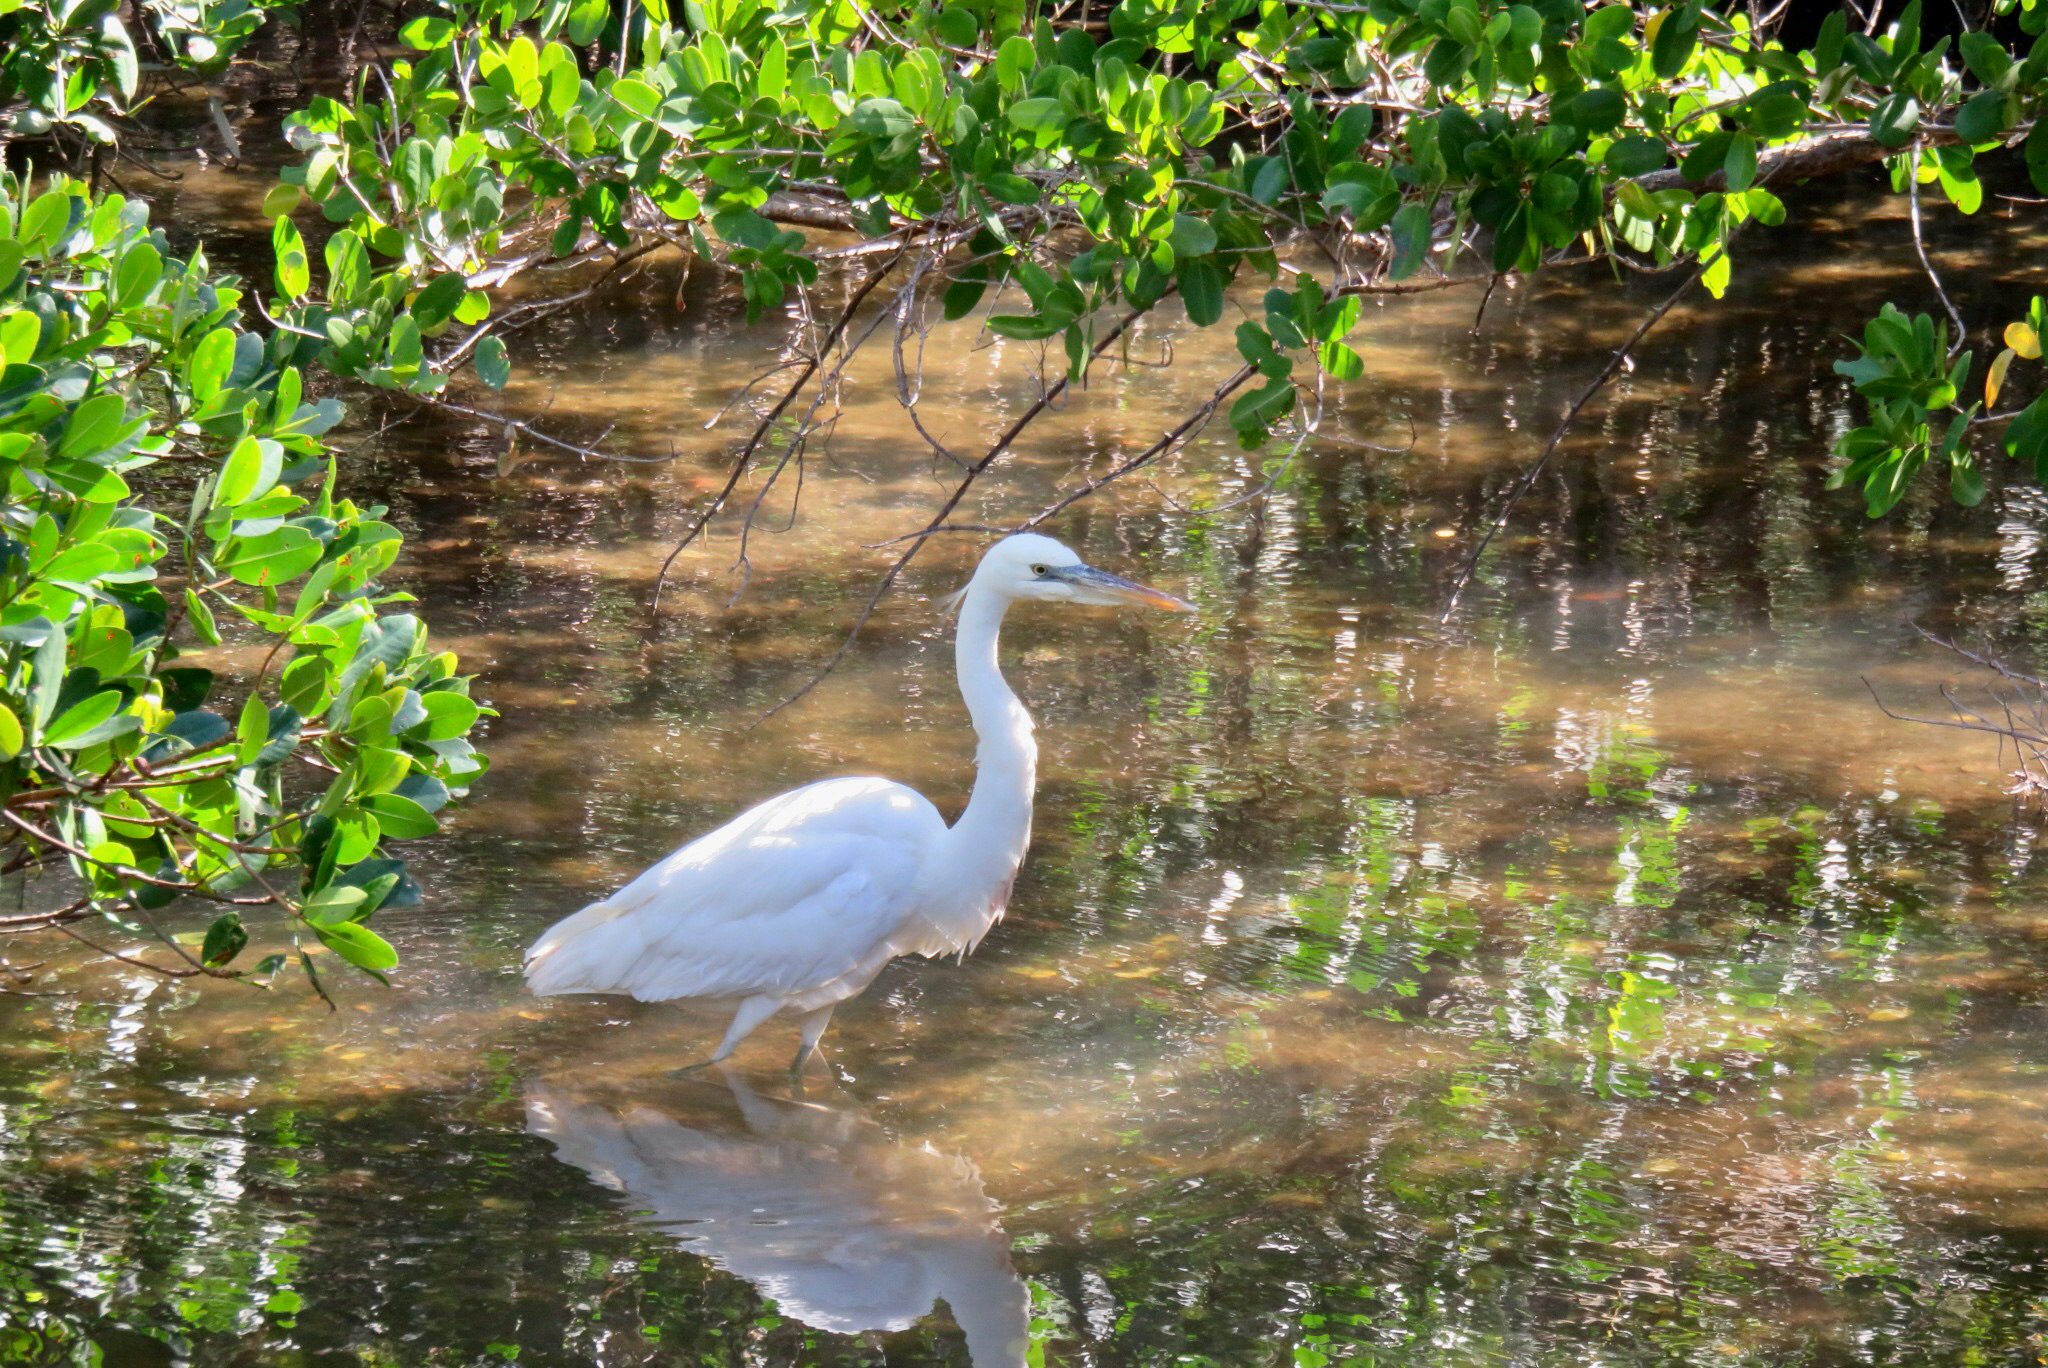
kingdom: Animalia
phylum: Chordata
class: Aves
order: Pelecaniformes
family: Ardeidae
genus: Ardea
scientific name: Ardea herodias
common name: Great blue heron
